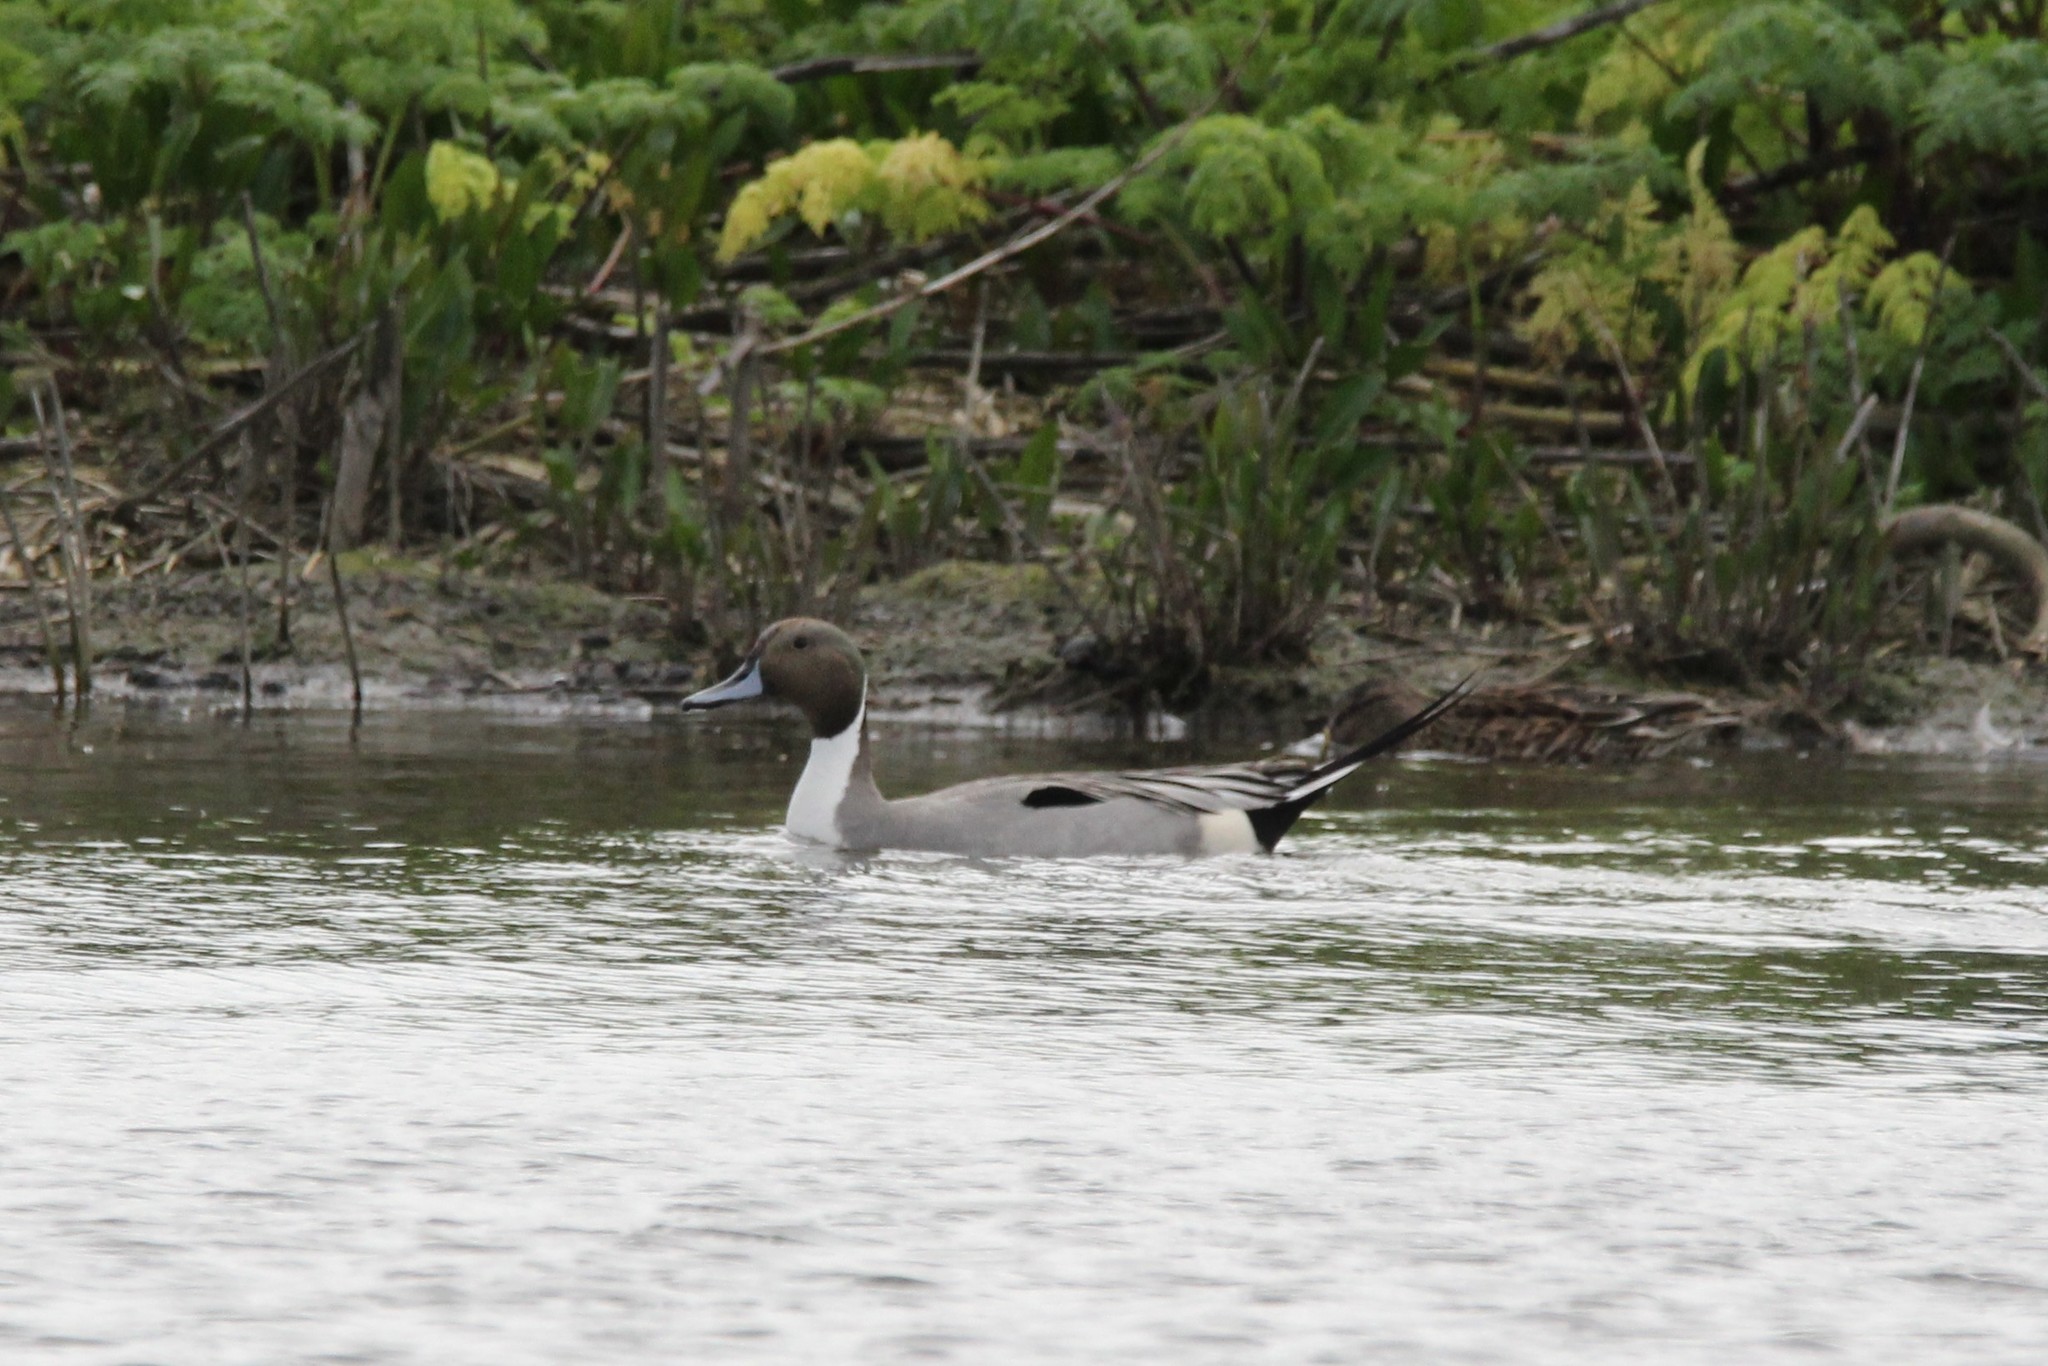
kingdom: Animalia
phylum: Chordata
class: Aves
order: Anseriformes
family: Anatidae
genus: Anas
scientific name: Anas acuta
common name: Northern pintail
